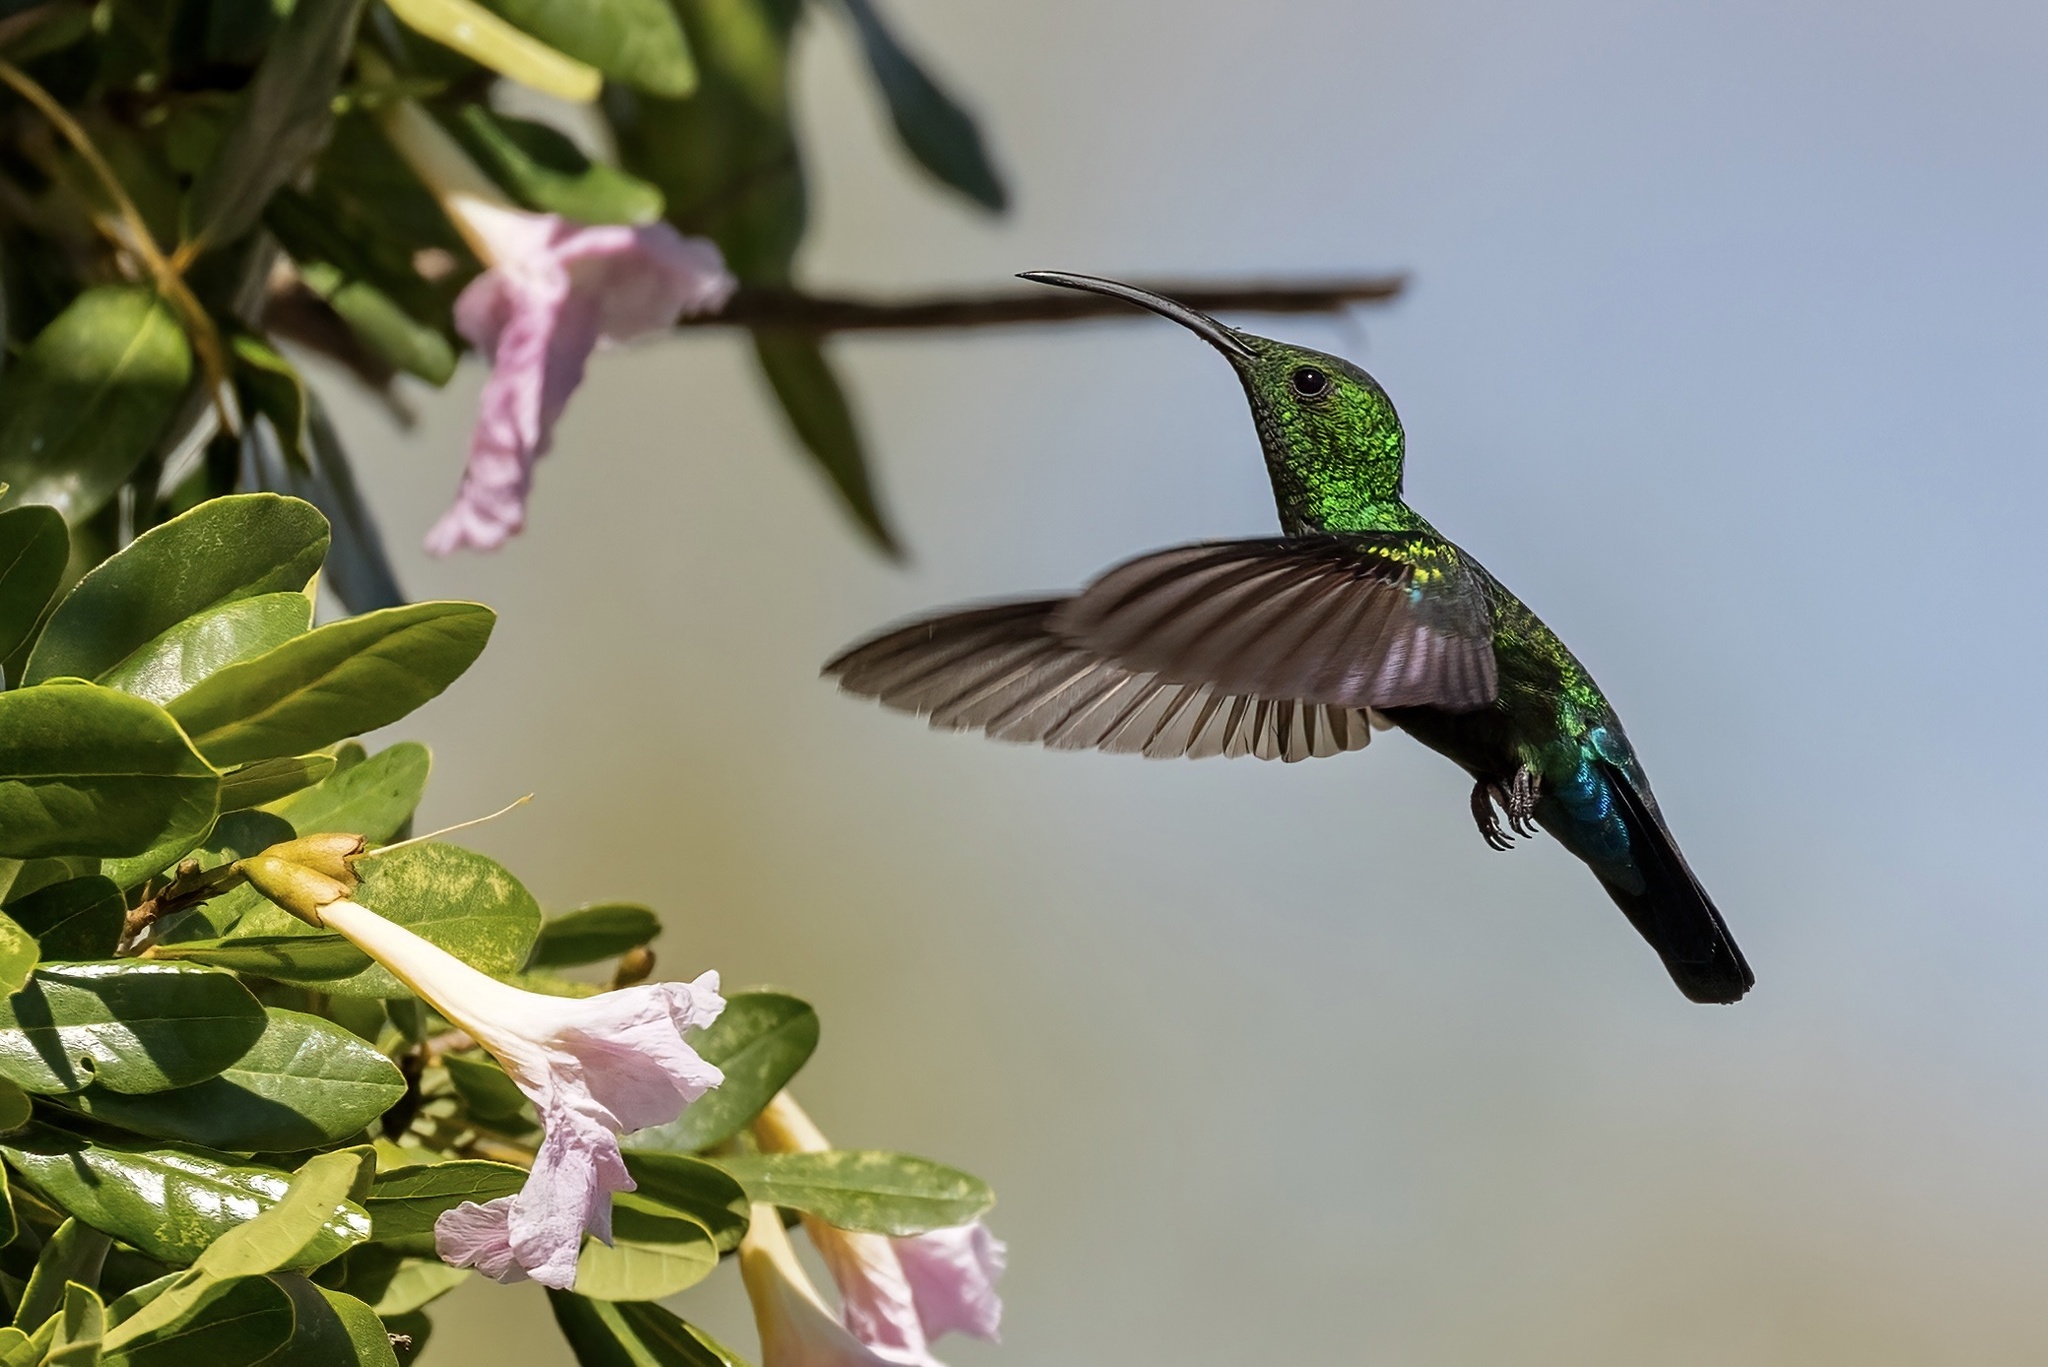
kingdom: Animalia
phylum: Chordata
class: Aves
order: Apodiformes
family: Trochilidae
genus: Eulampis
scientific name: Eulampis holosericeus
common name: Green-throated carib
